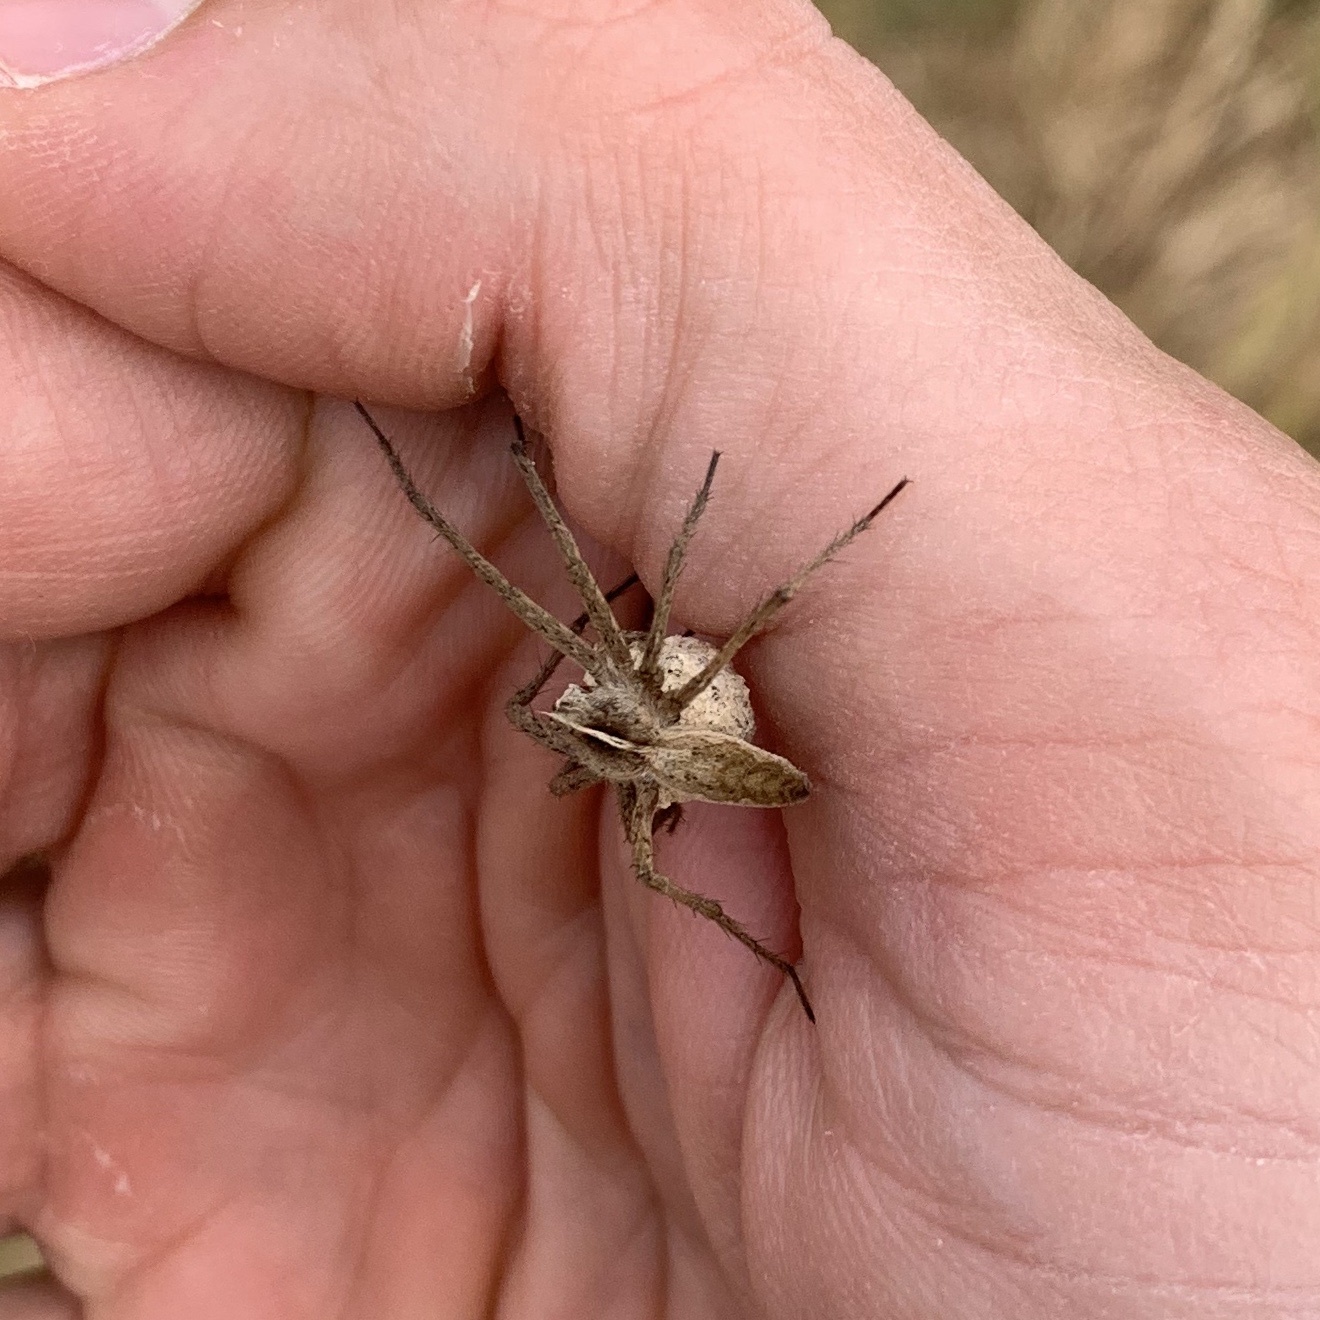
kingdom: Animalia
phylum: Arthropoda
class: Arachnida
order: Araneae
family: Pisauridae
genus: Pisaura
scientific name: Pisaura mirabilis
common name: Tent spider
